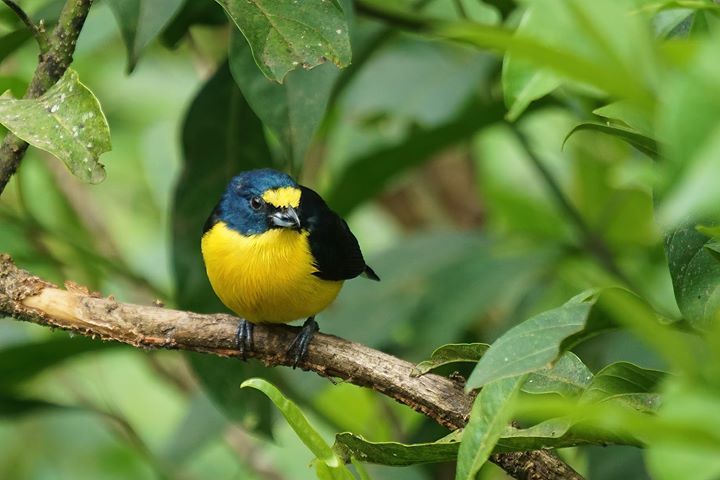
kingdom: Animalia
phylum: Chordata
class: Aves
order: Passeriformes
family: Fringillidae
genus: Euphonia
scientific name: Euphonia hirundinacea
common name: Yellow-throated euphonia
